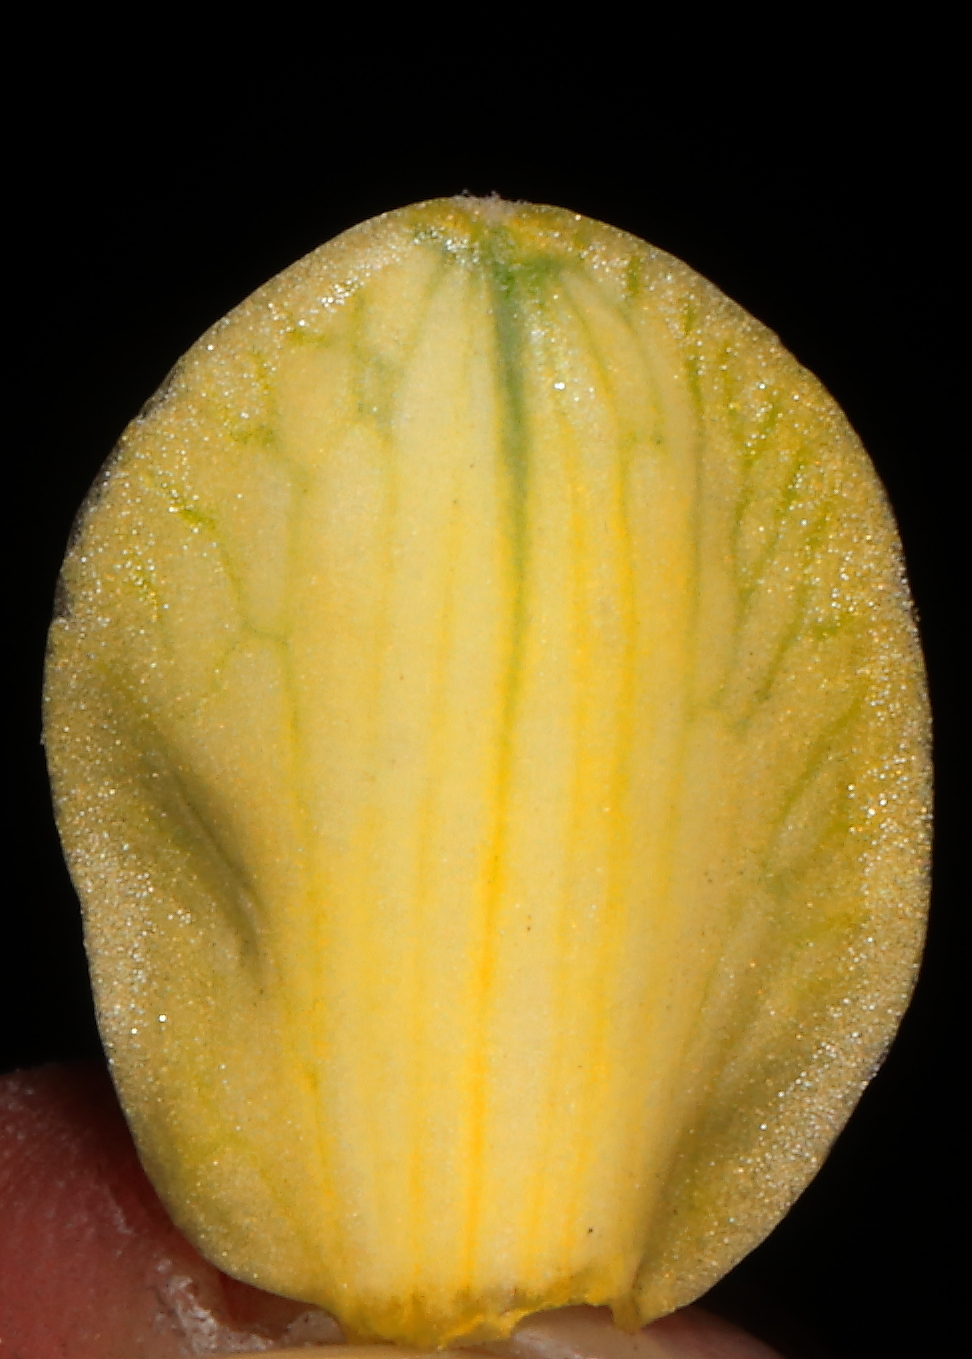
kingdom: Plantae
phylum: Tracheophyta
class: Liliopsida
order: Asparagales
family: Amaryllidaceae
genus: Stenomesson
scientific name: Stenomesson pearcei
